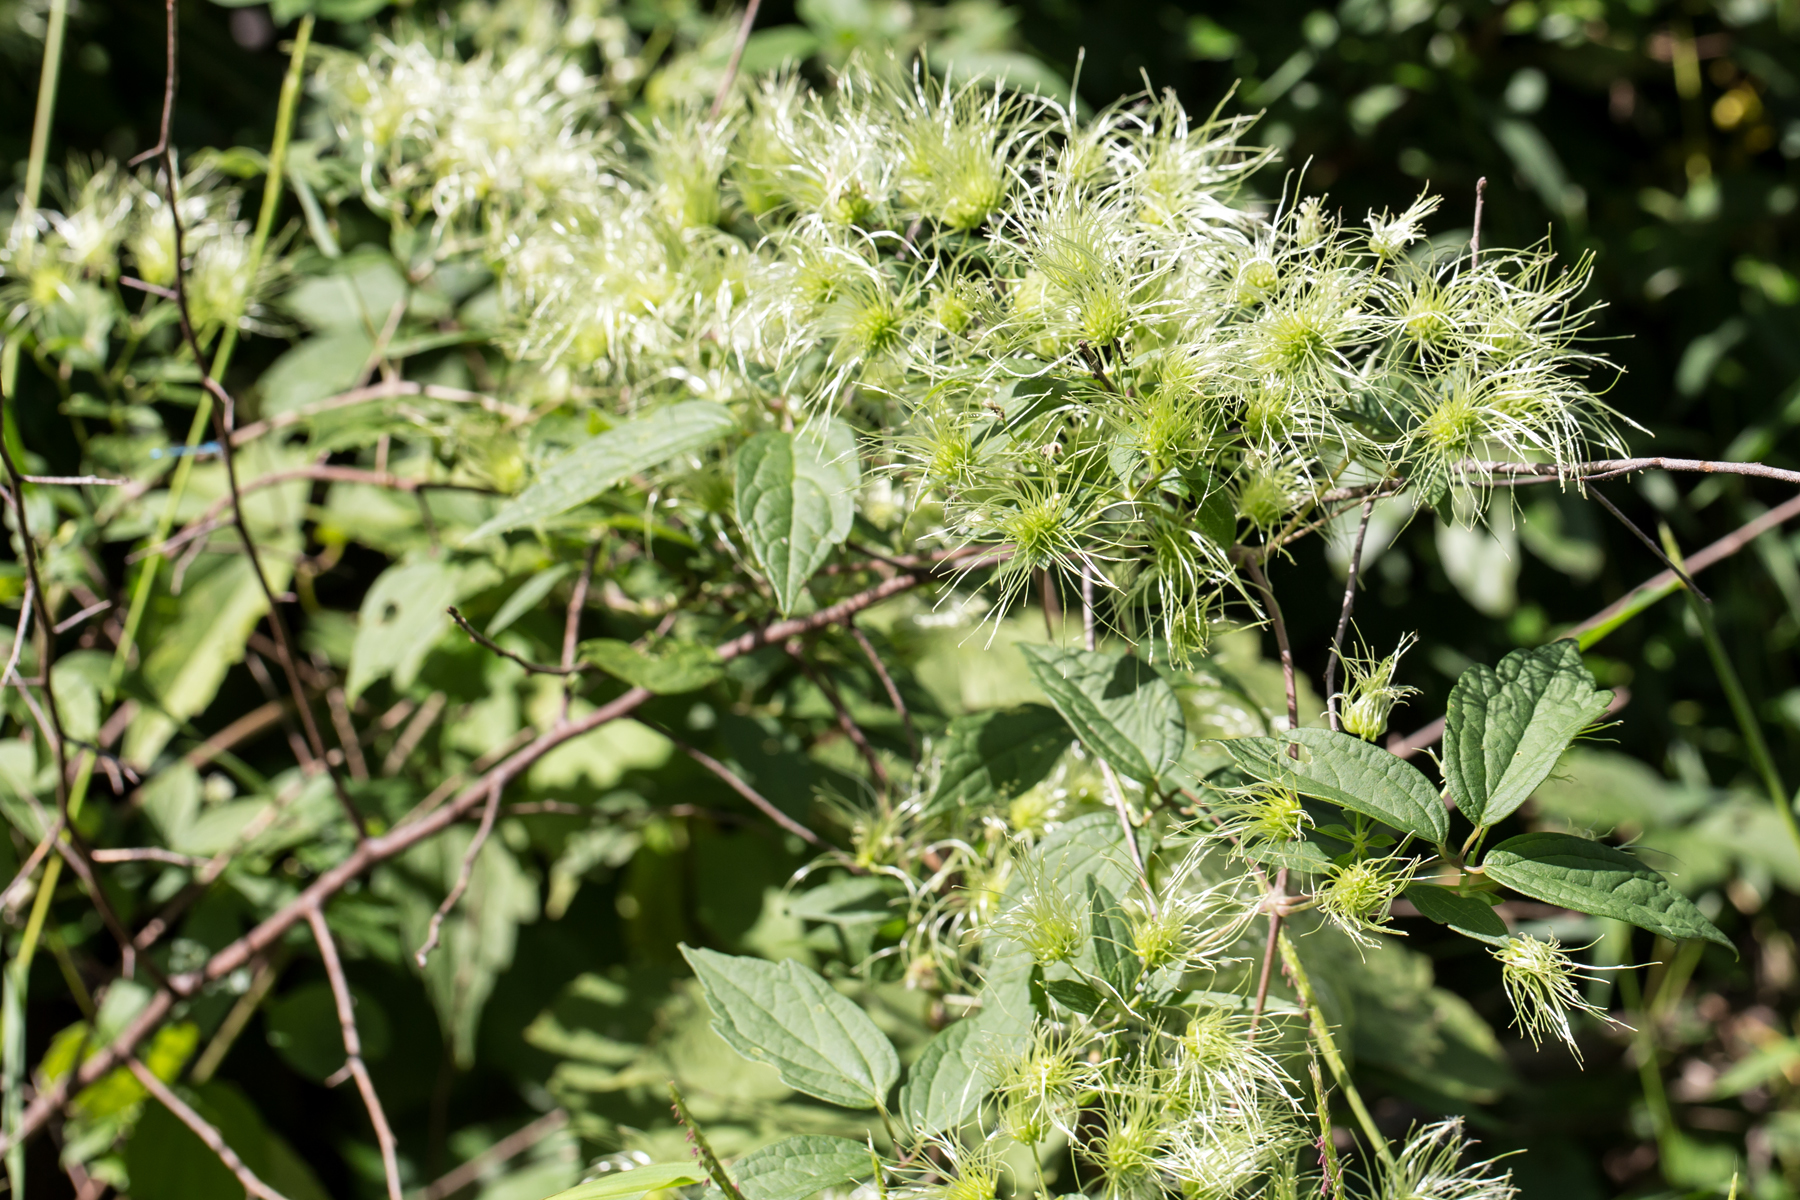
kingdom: Plantae
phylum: Tracheophyta
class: Magnoliopsida
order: Ranunculales
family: Ranunculaceae
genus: Clematis
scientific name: Clematis virginiana
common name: Virgin's-bower
